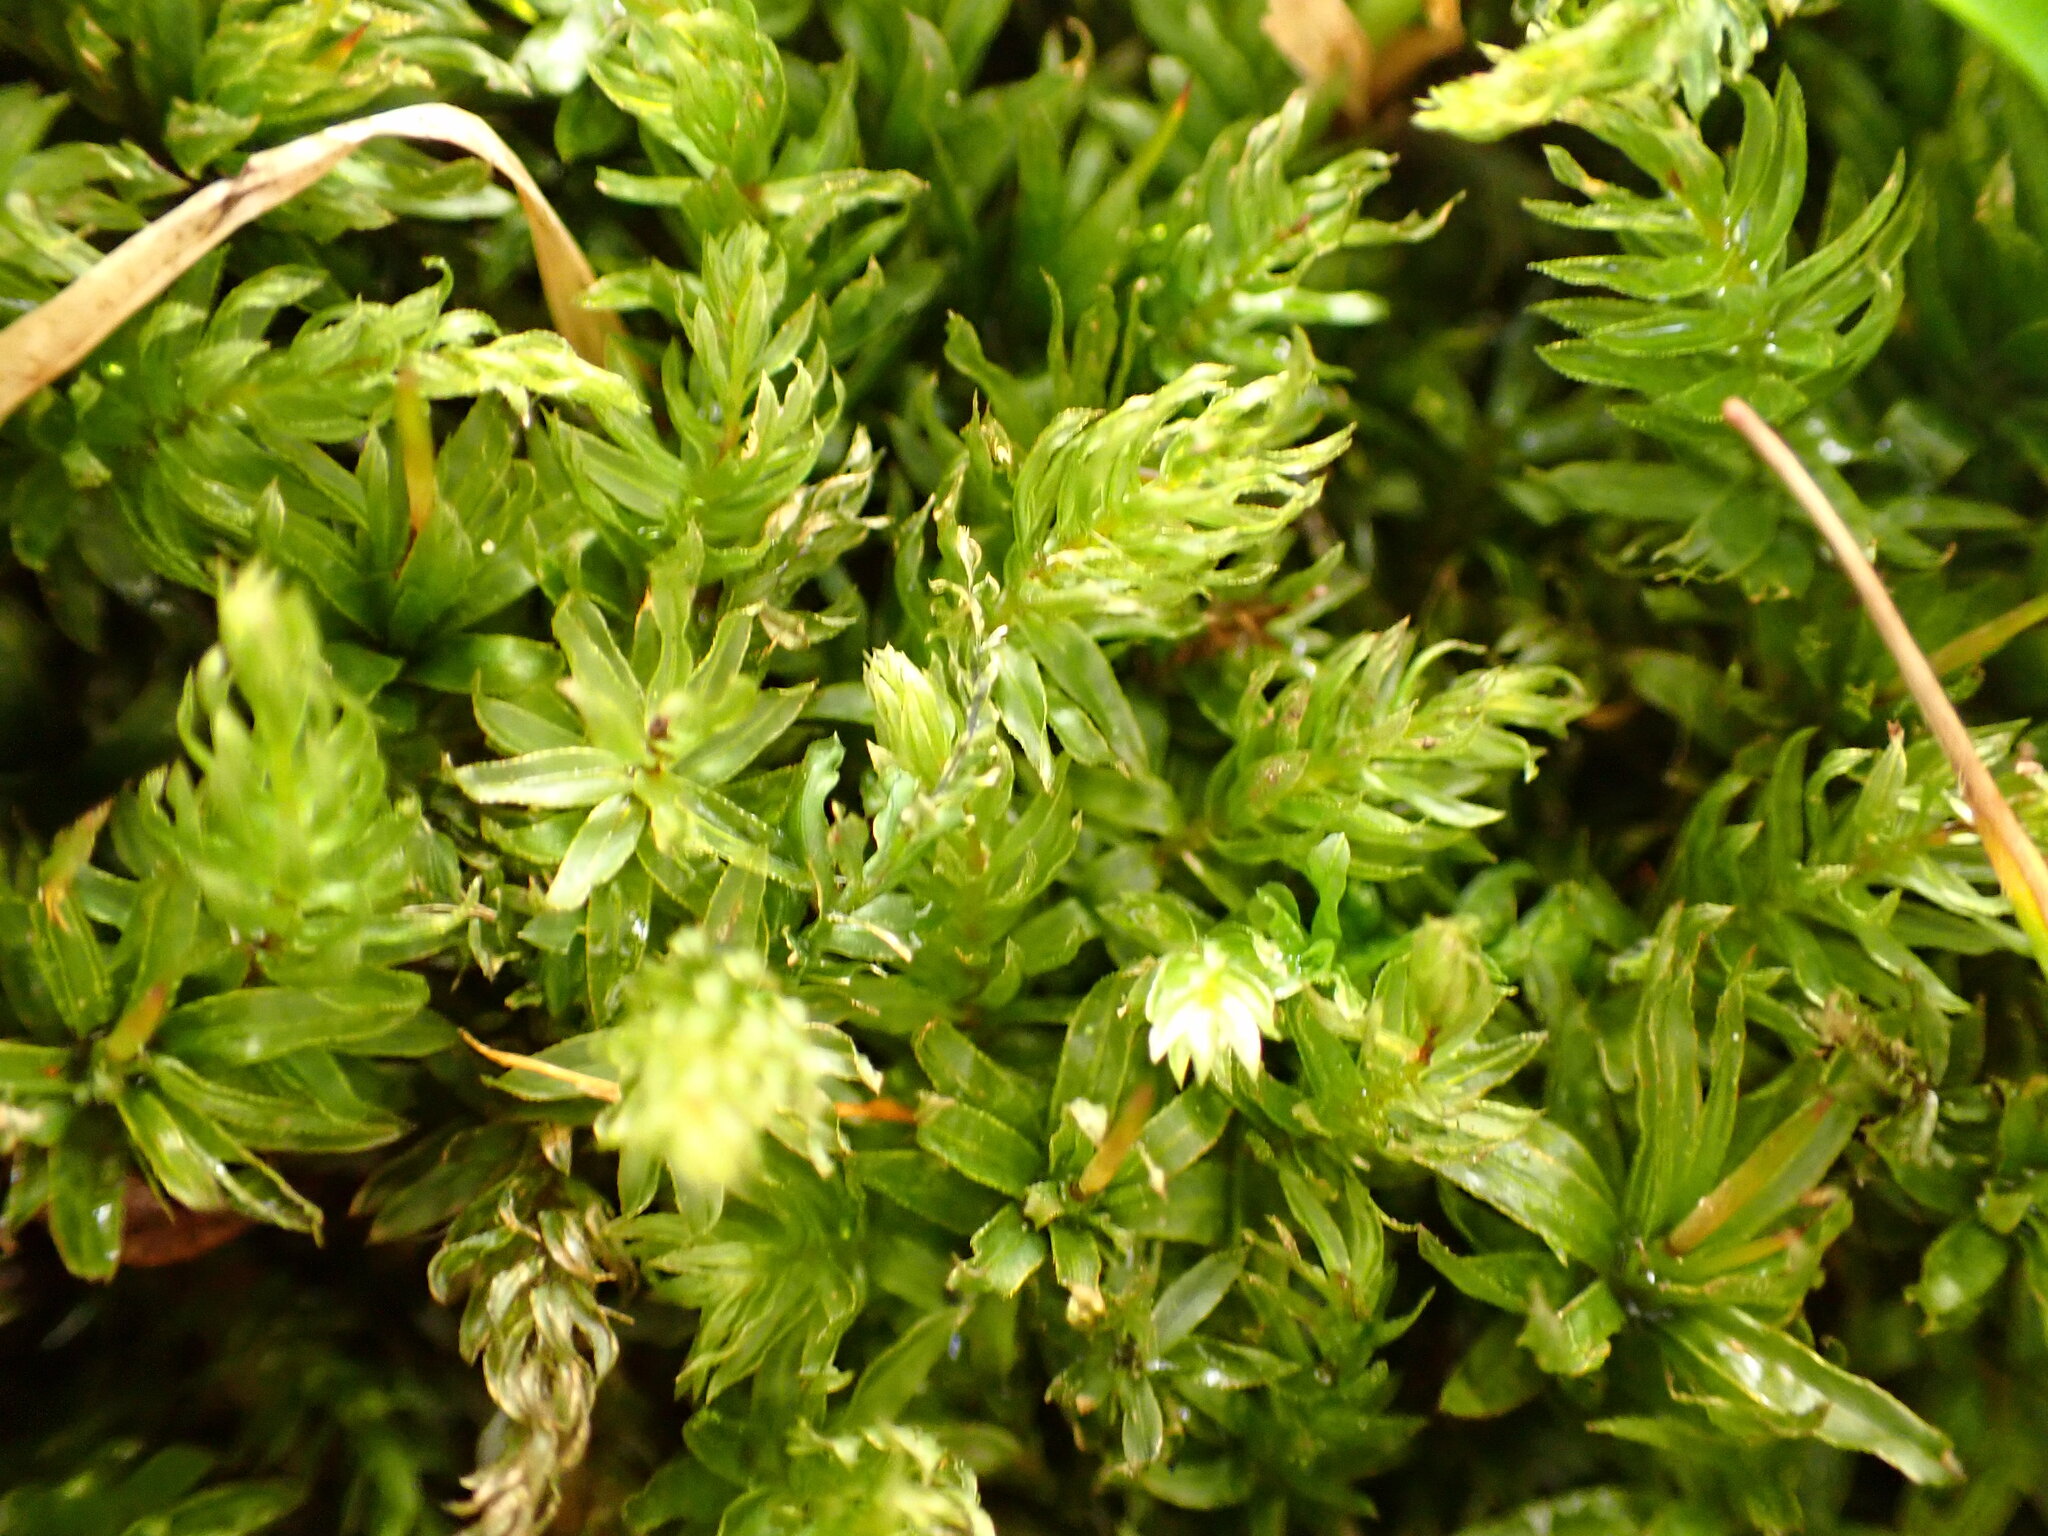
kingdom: Plantae
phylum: Bryophyta
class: Bryopsida
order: Bryales
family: Mniaceae
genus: Mnium
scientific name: Mnium hornum
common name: Swan's-neck leafy moss
